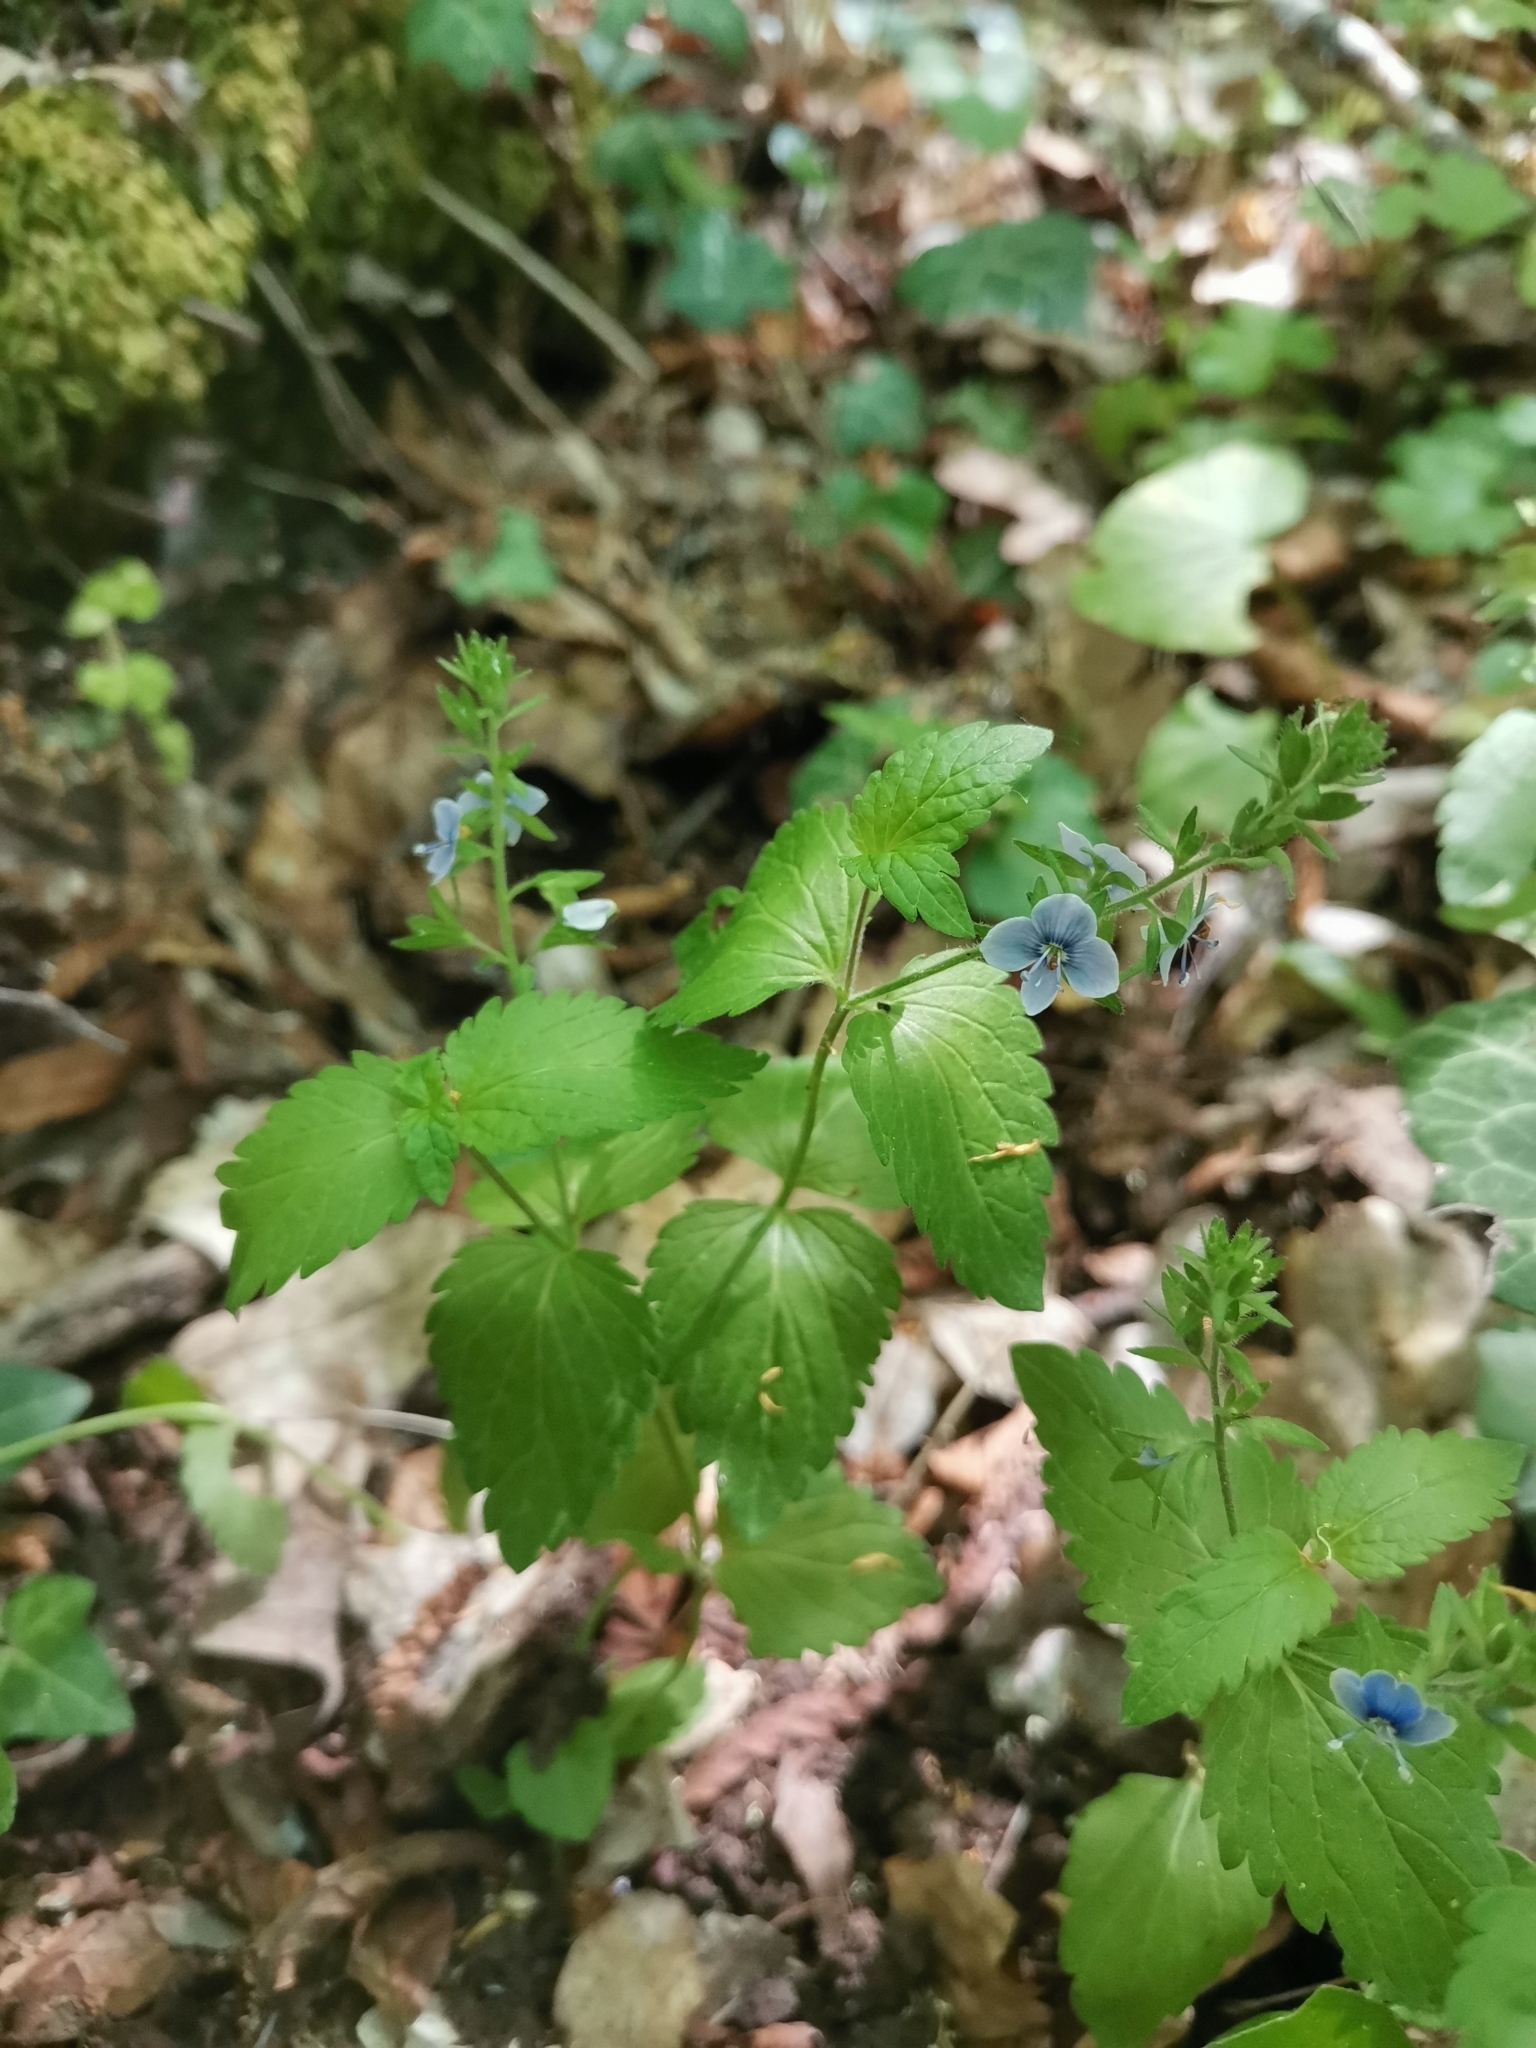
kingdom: Plantae
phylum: Tracheophyta
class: Magnoliopsida
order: Lamiales
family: Plantaginaceae
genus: Veronica
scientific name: Veronica chamaedrys
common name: Germander speedwell
